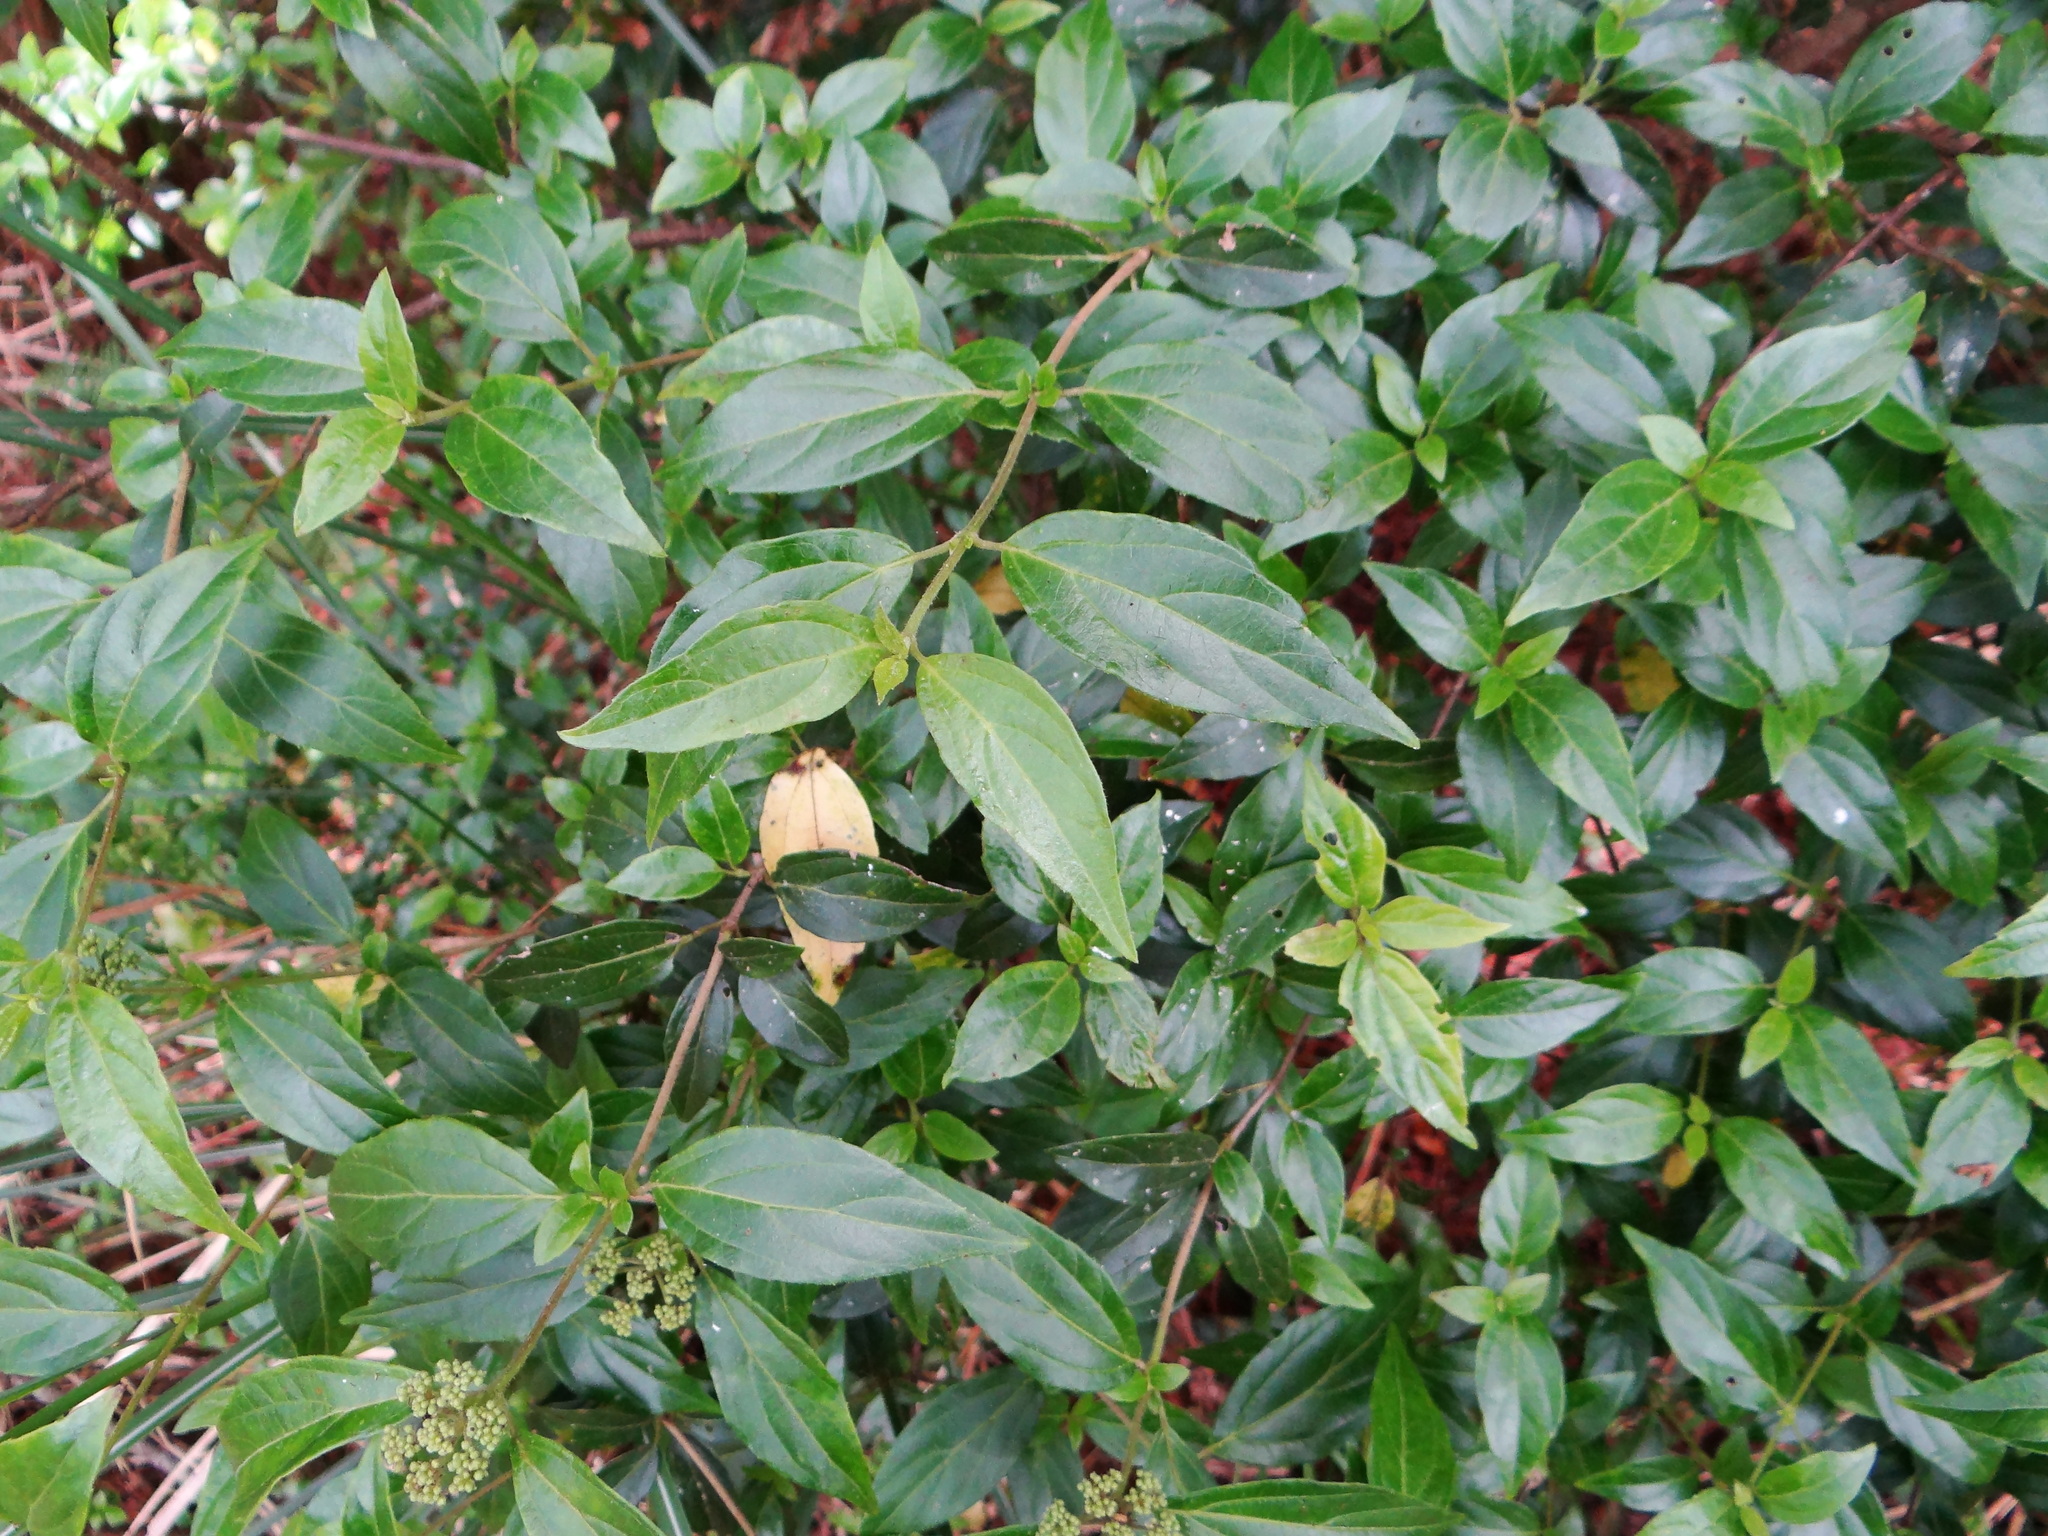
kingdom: Plantae
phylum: Tracheophyta
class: Magnoliopsida
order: Dipsacales
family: Viburnaceae
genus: Viburnum
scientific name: Viburnum foetidum
